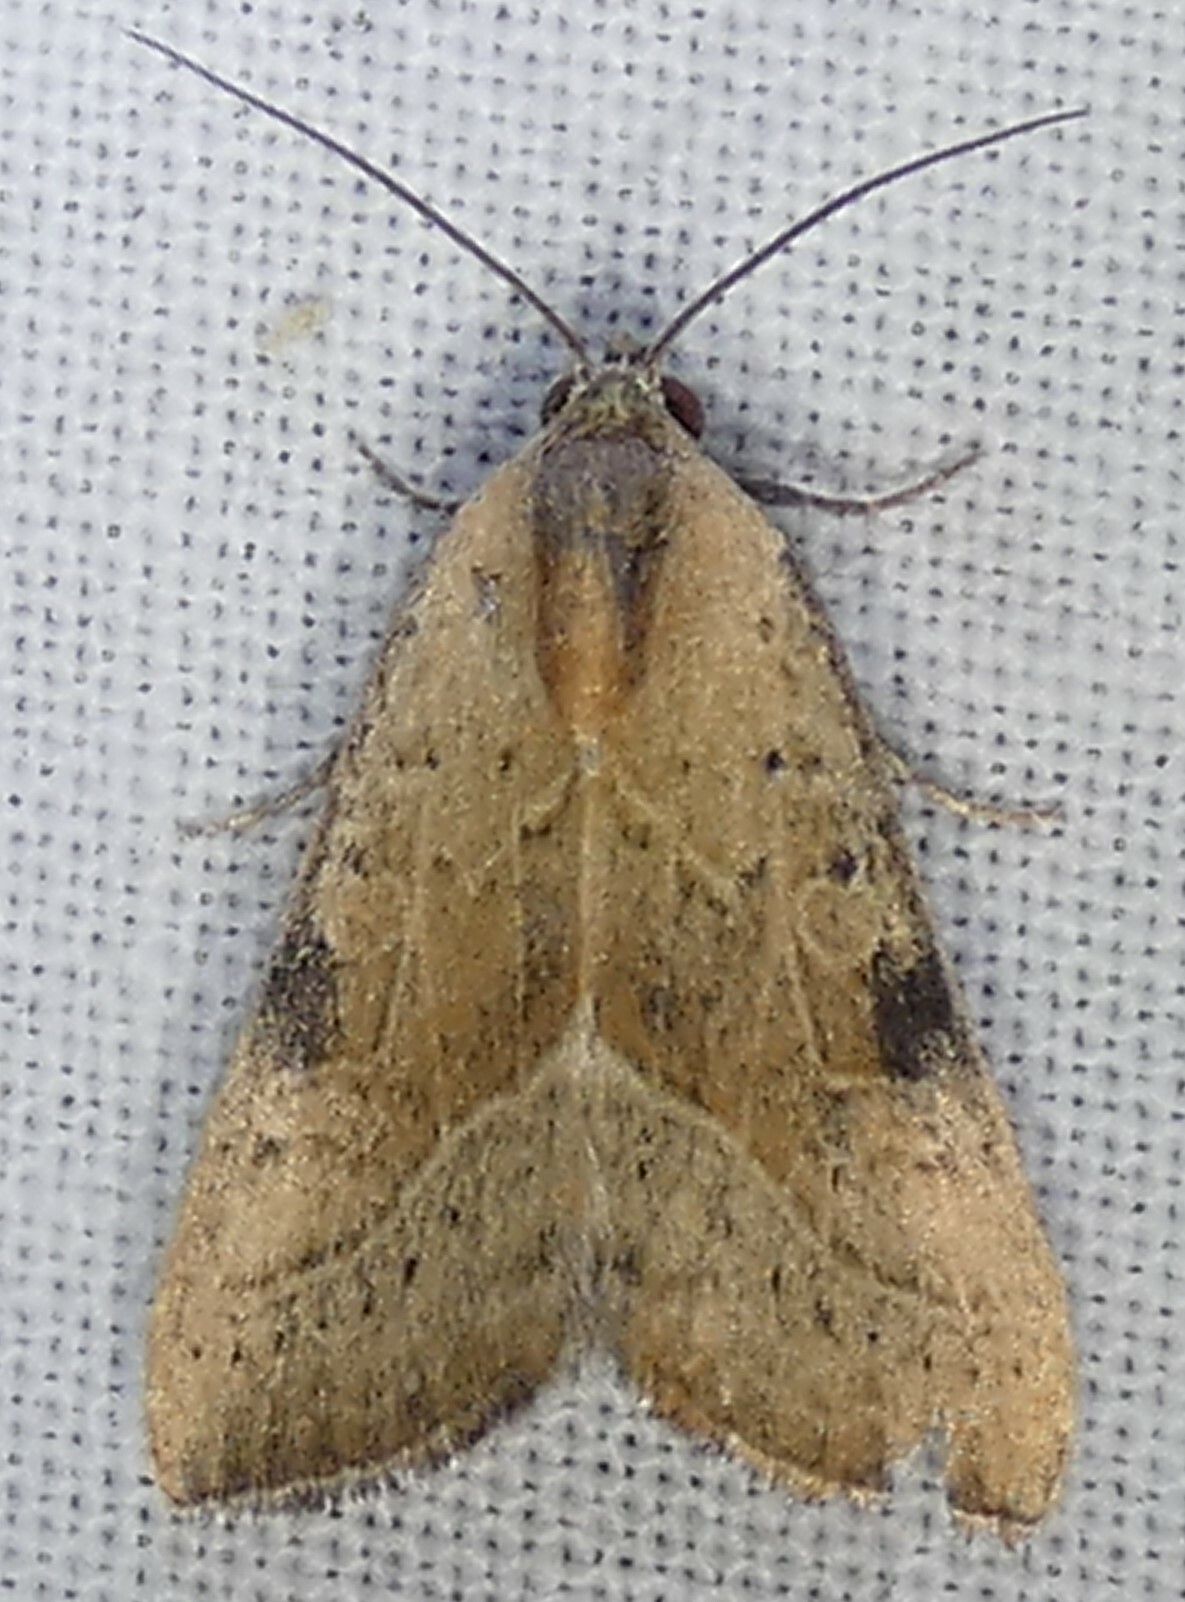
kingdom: Animalia
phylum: Arthropoda
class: Insecta
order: Lepidoptera
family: Noctuidae
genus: Galgula
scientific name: Galgula partita
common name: Wedgeling
